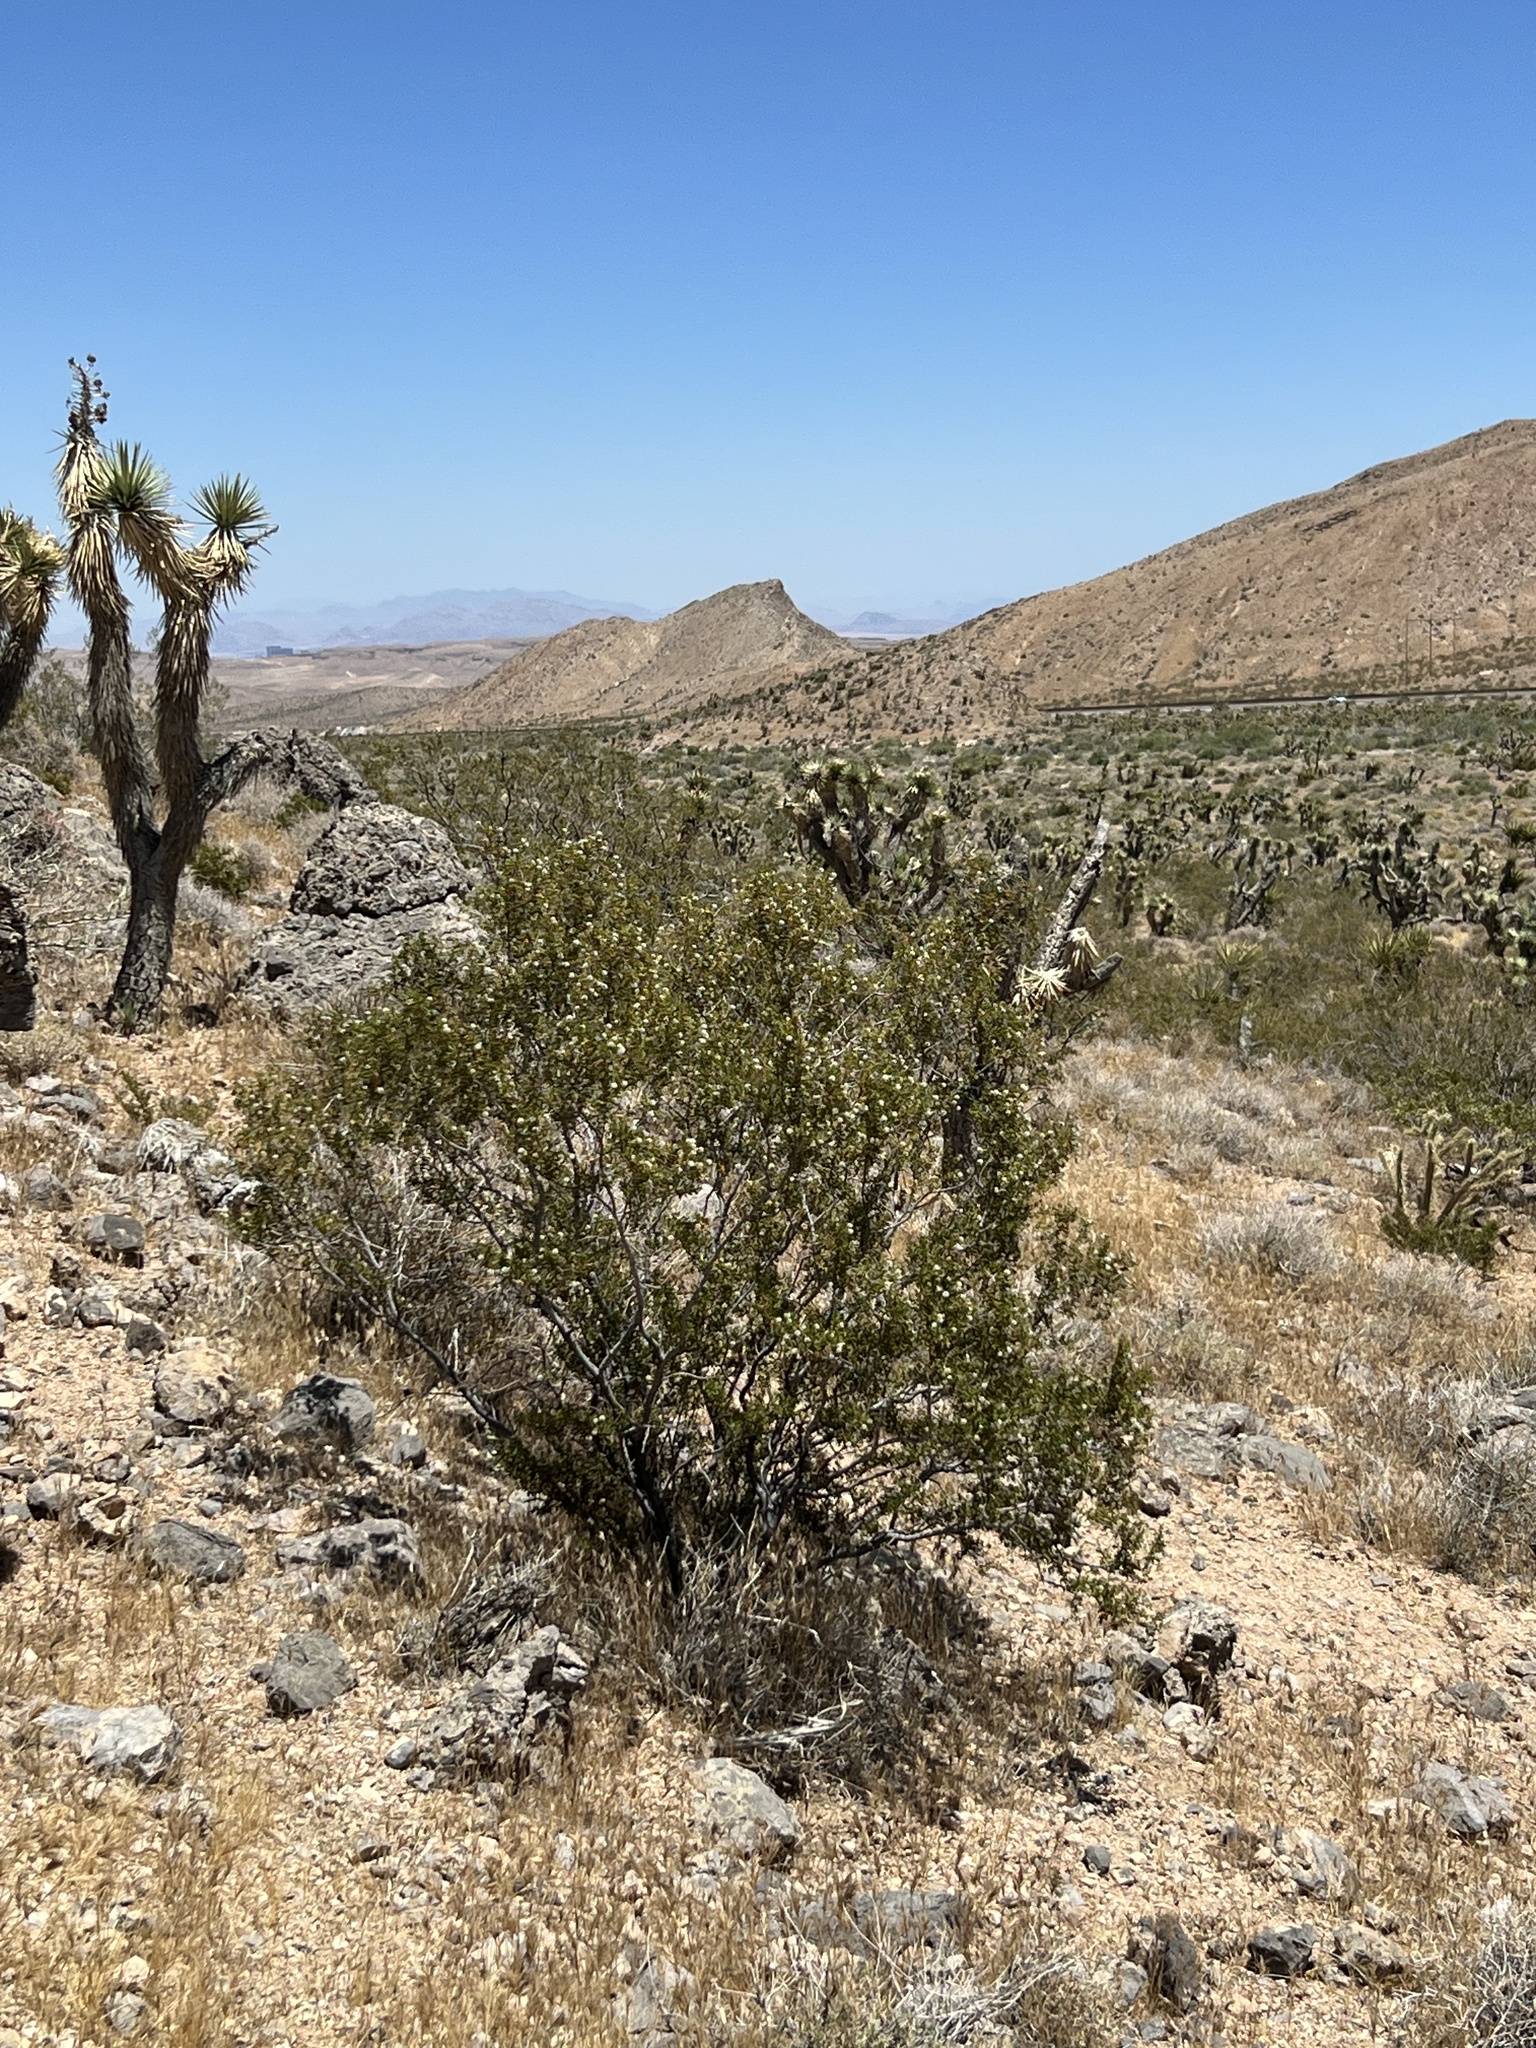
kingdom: Plantae
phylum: Tracheophyta
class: Magnoliopsida
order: Zygophyllales
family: Zygophyllaceae
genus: Larrea
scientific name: Larrea tridentata
